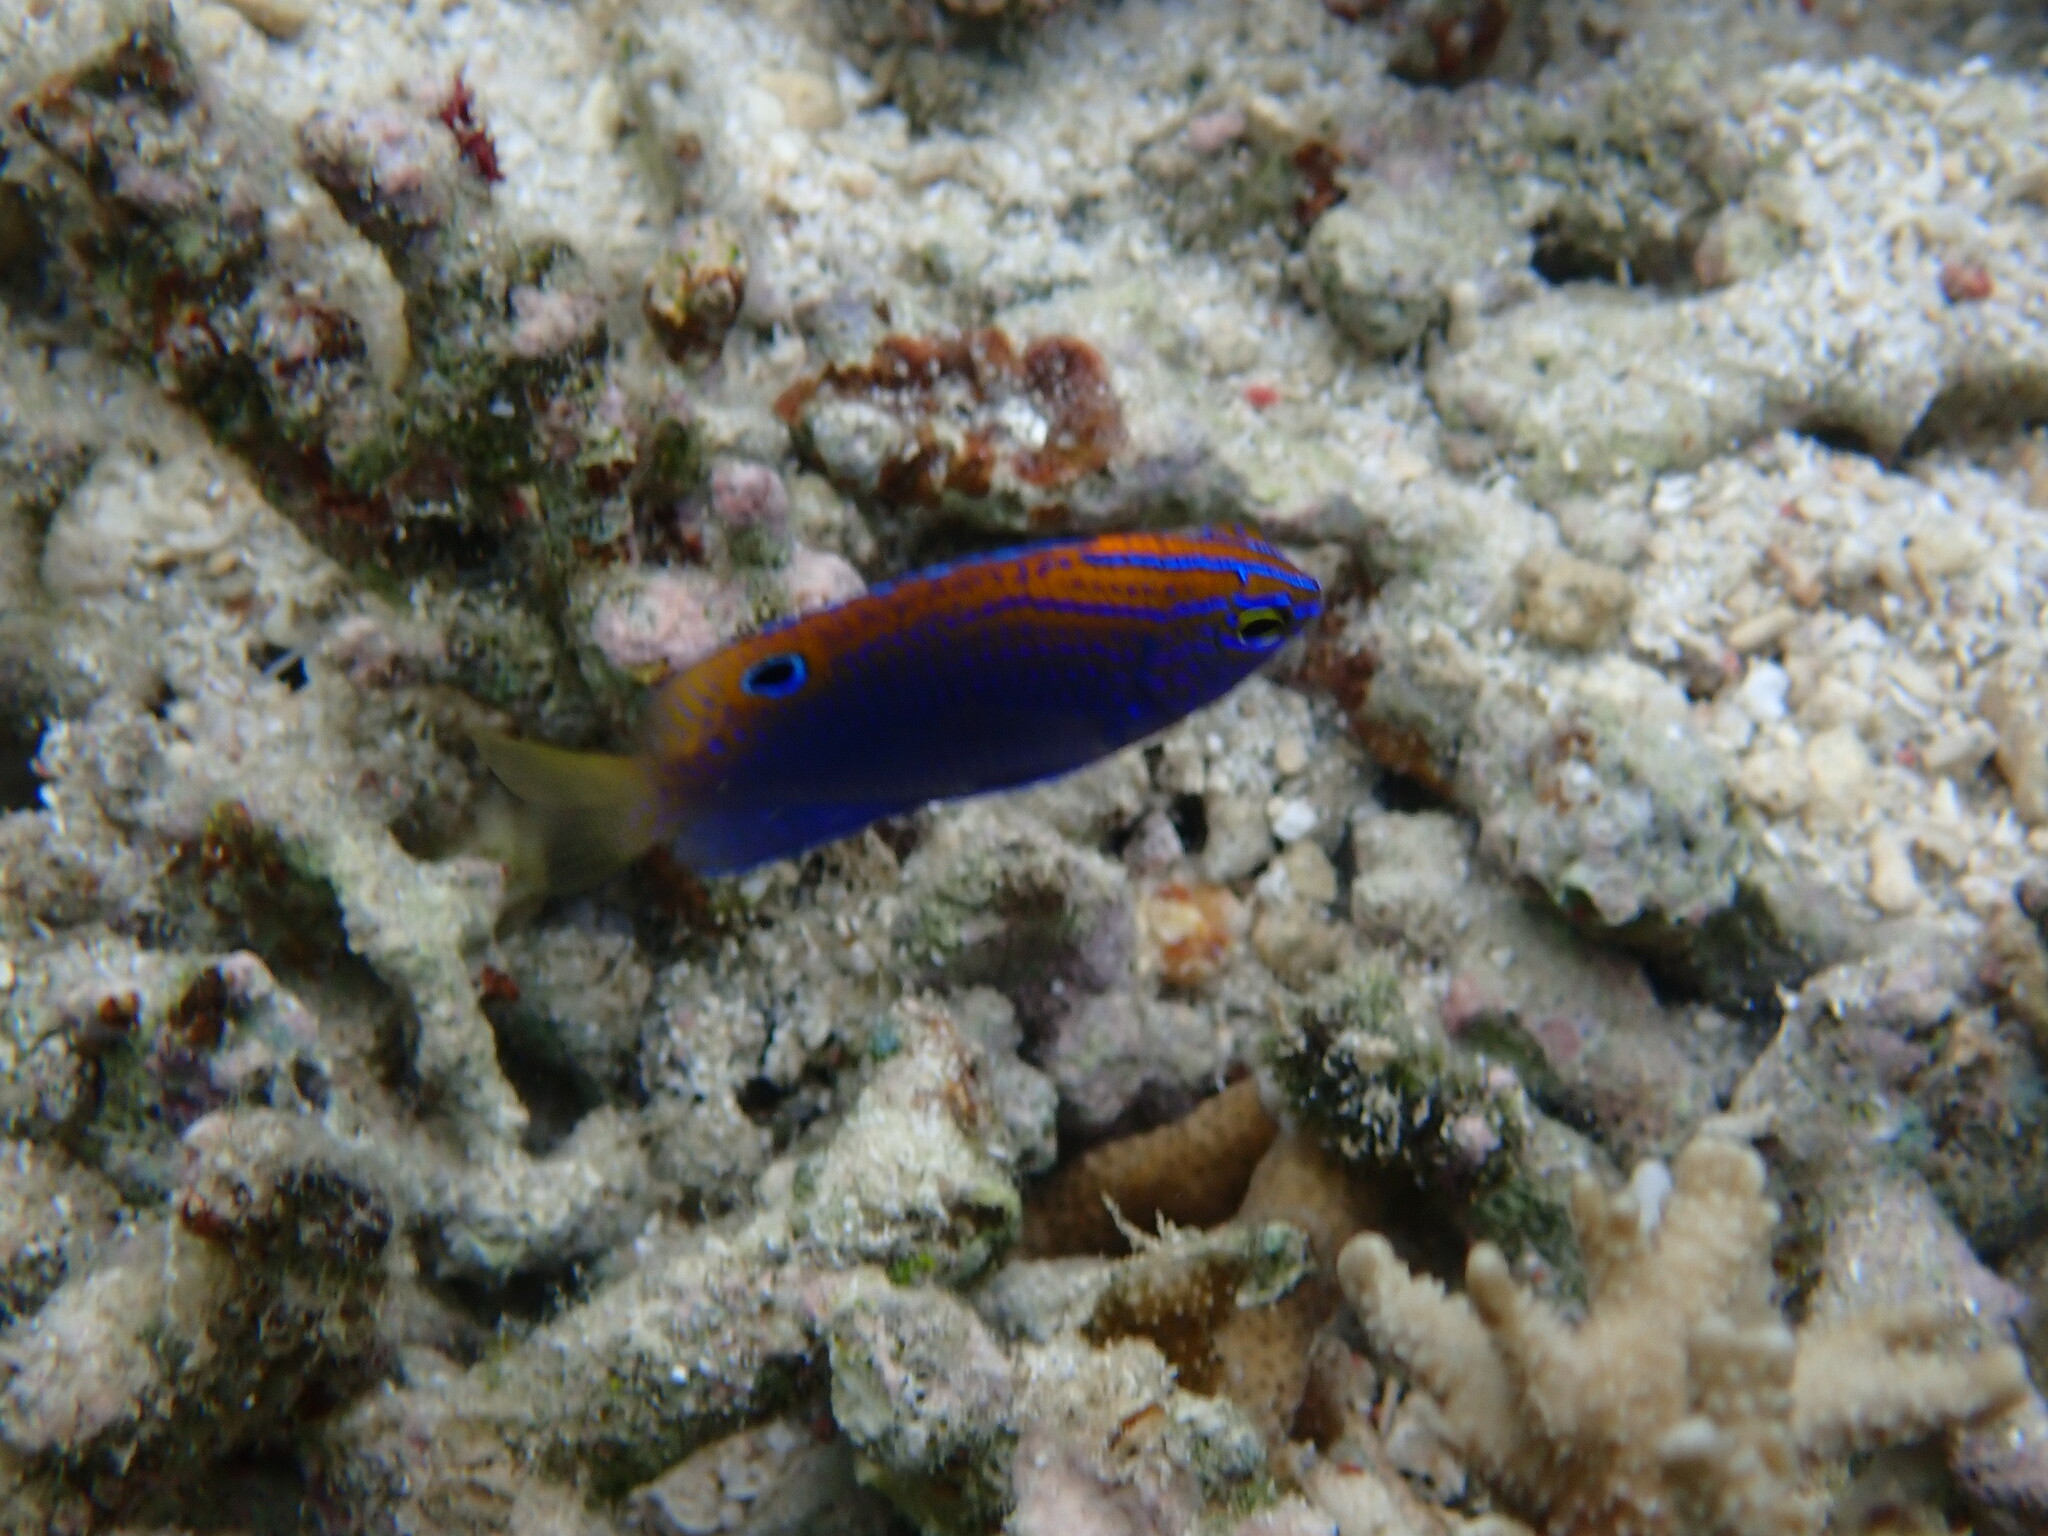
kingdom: Animalia
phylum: Chordata
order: Perciformes
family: Pomacentridae
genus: Pomacentrus
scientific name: Pomacentrus vaiuli
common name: Princess damsel
